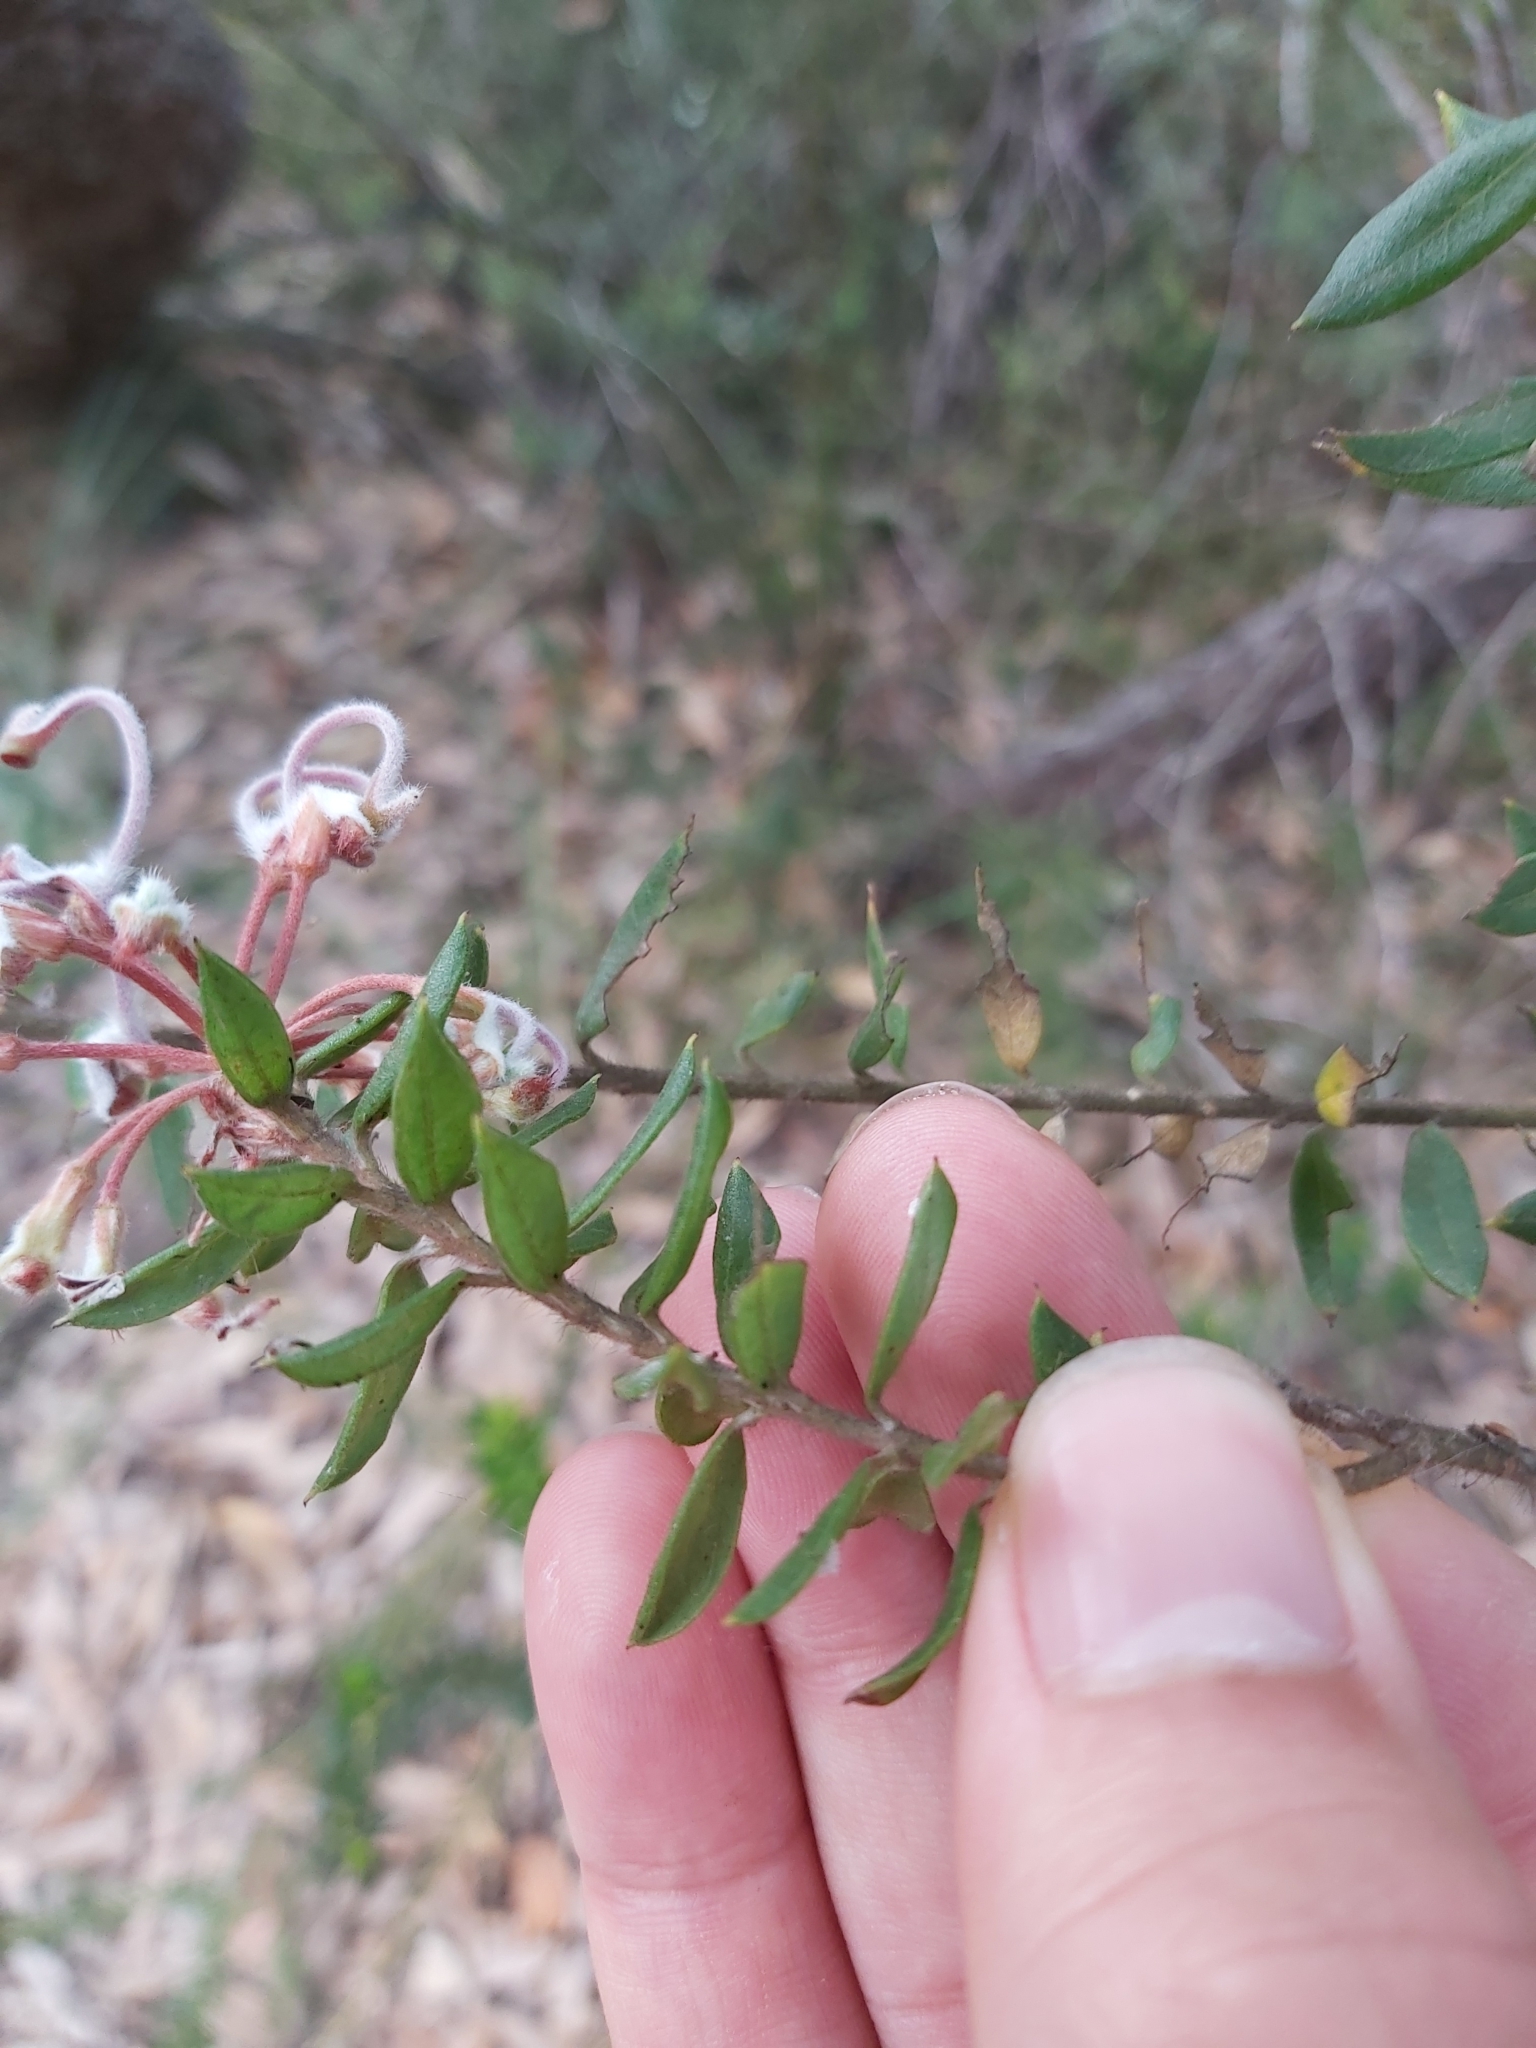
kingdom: Plantae
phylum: Tracheophyta
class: Magnoliopsida
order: Proteales
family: Proteaceae
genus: Grevillea
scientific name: Grevillea buxifolia
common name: Grey spiderflower
